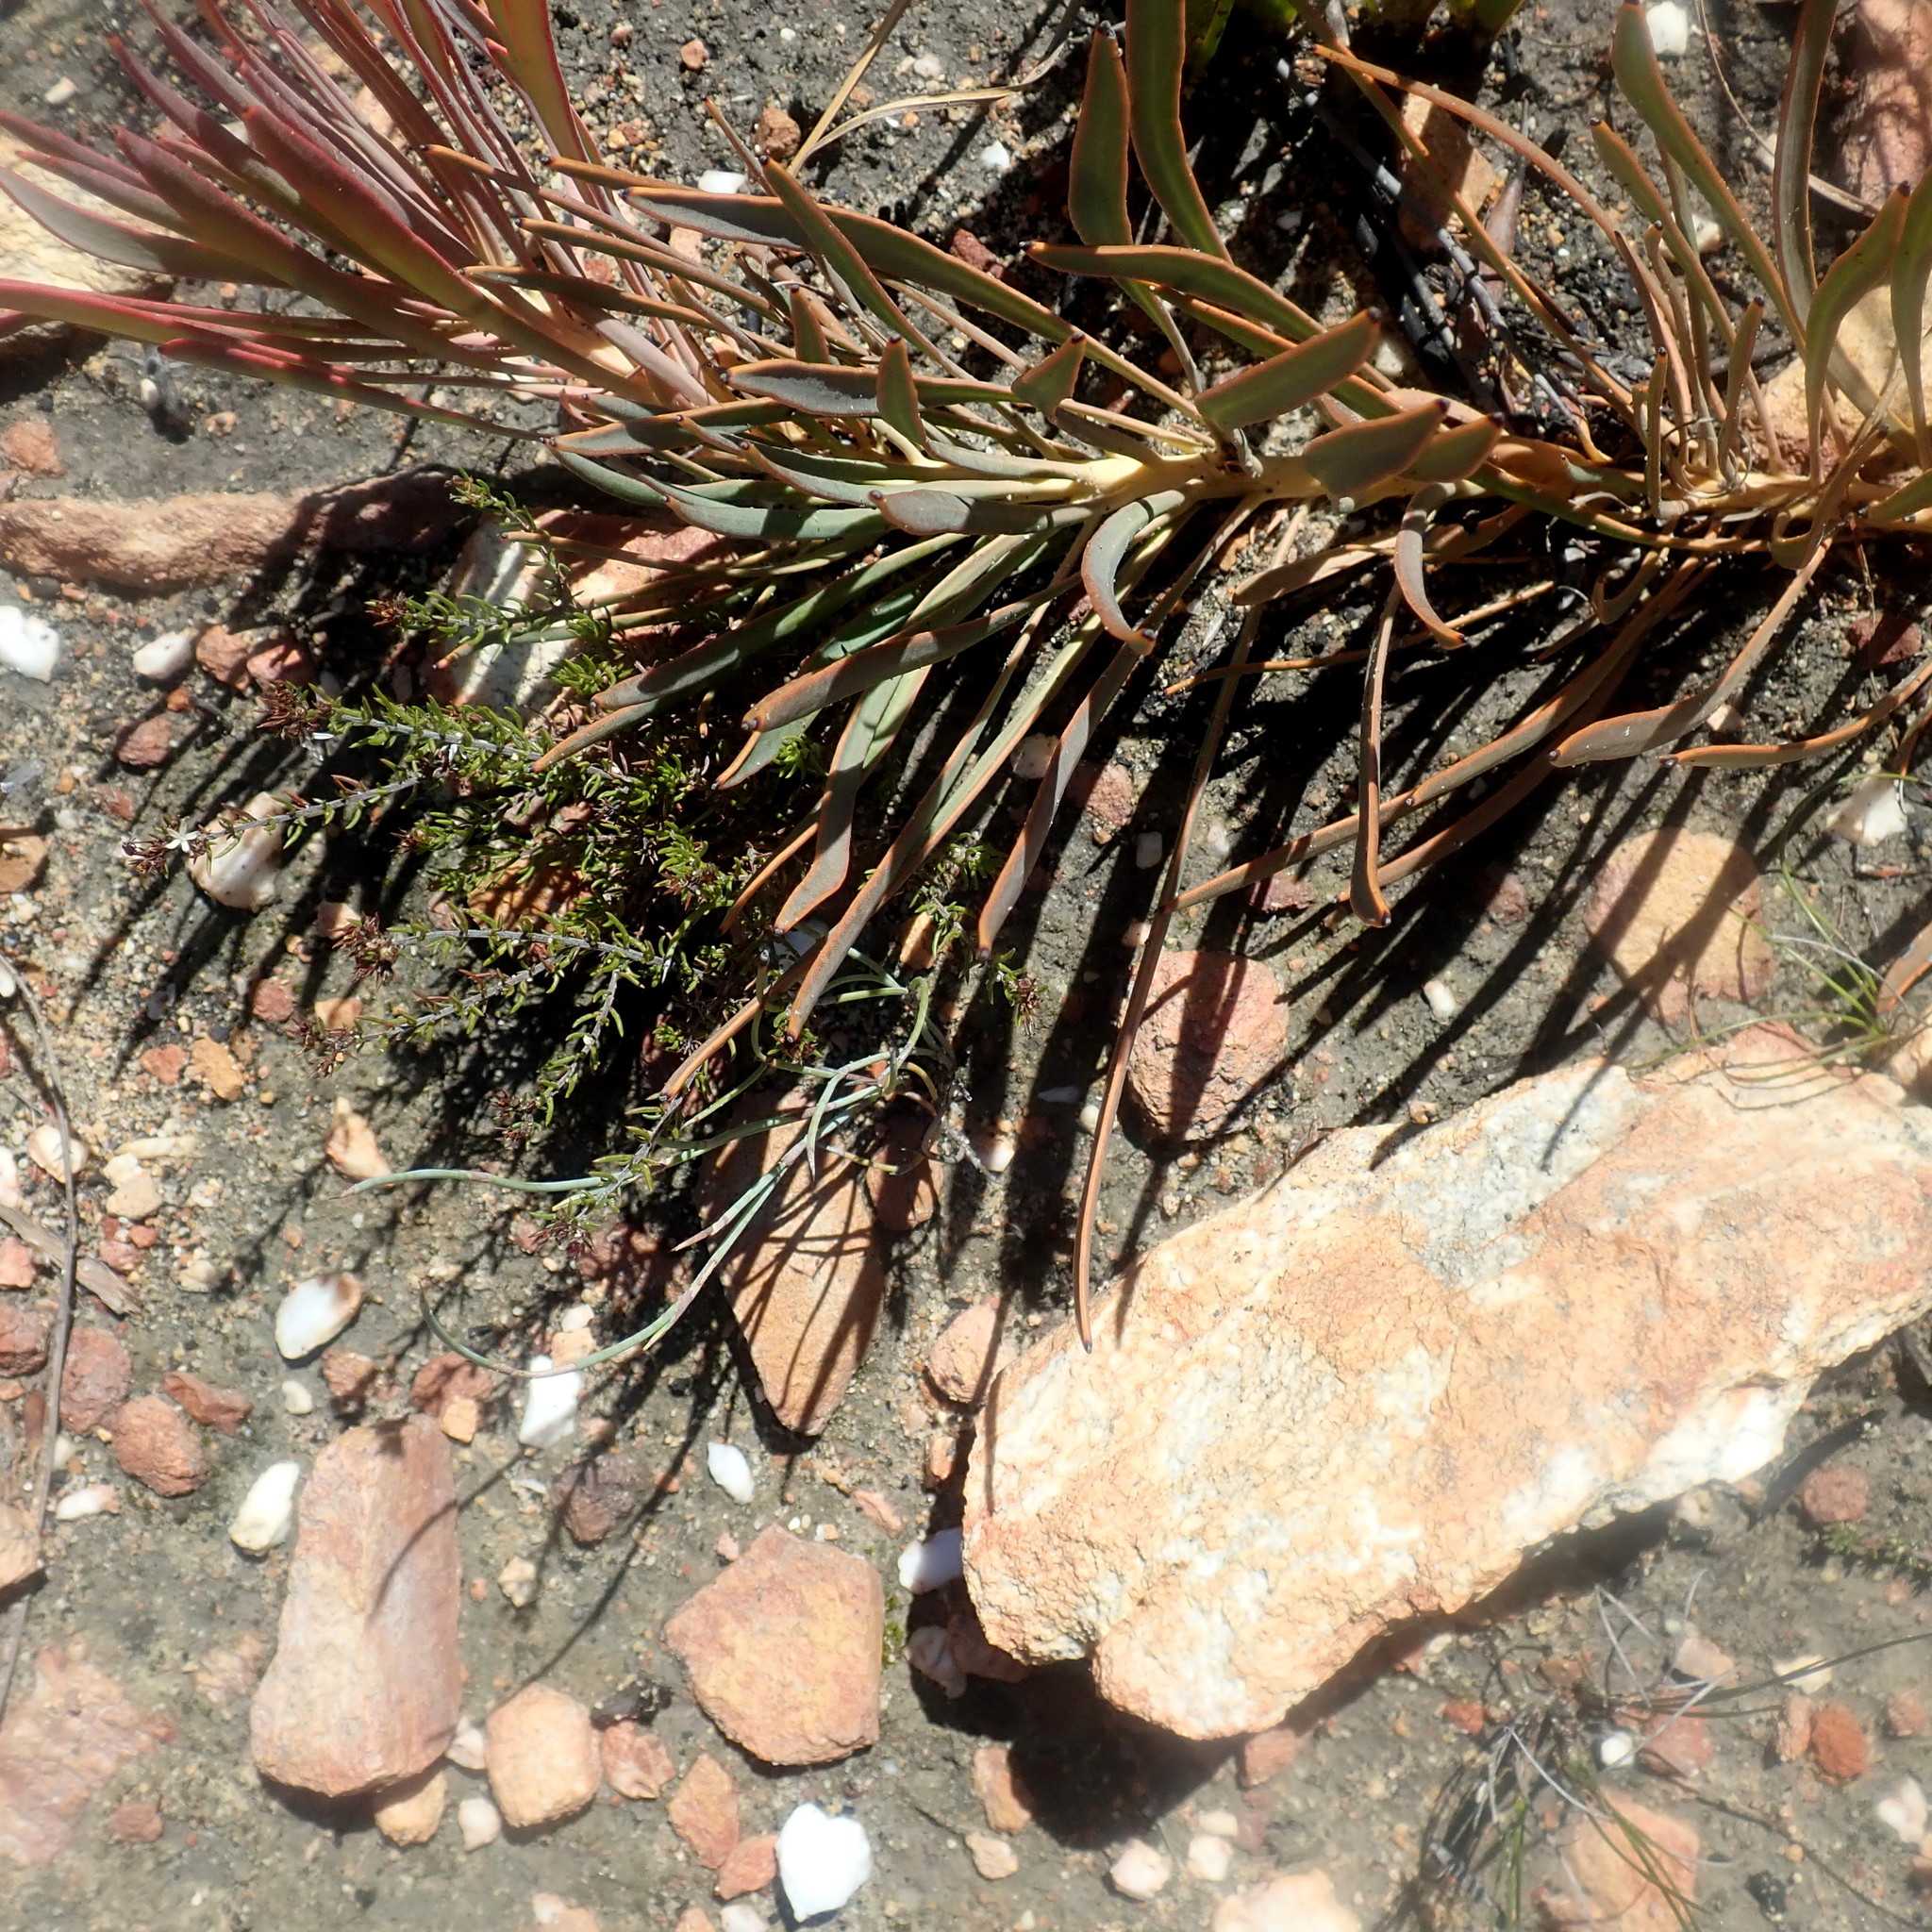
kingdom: Plantae
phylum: Tracheophyta
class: Magnoliopsida
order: Proteales
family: Proteaceae
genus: Protea
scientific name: Protea tenax
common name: Tenacious sugarbush
